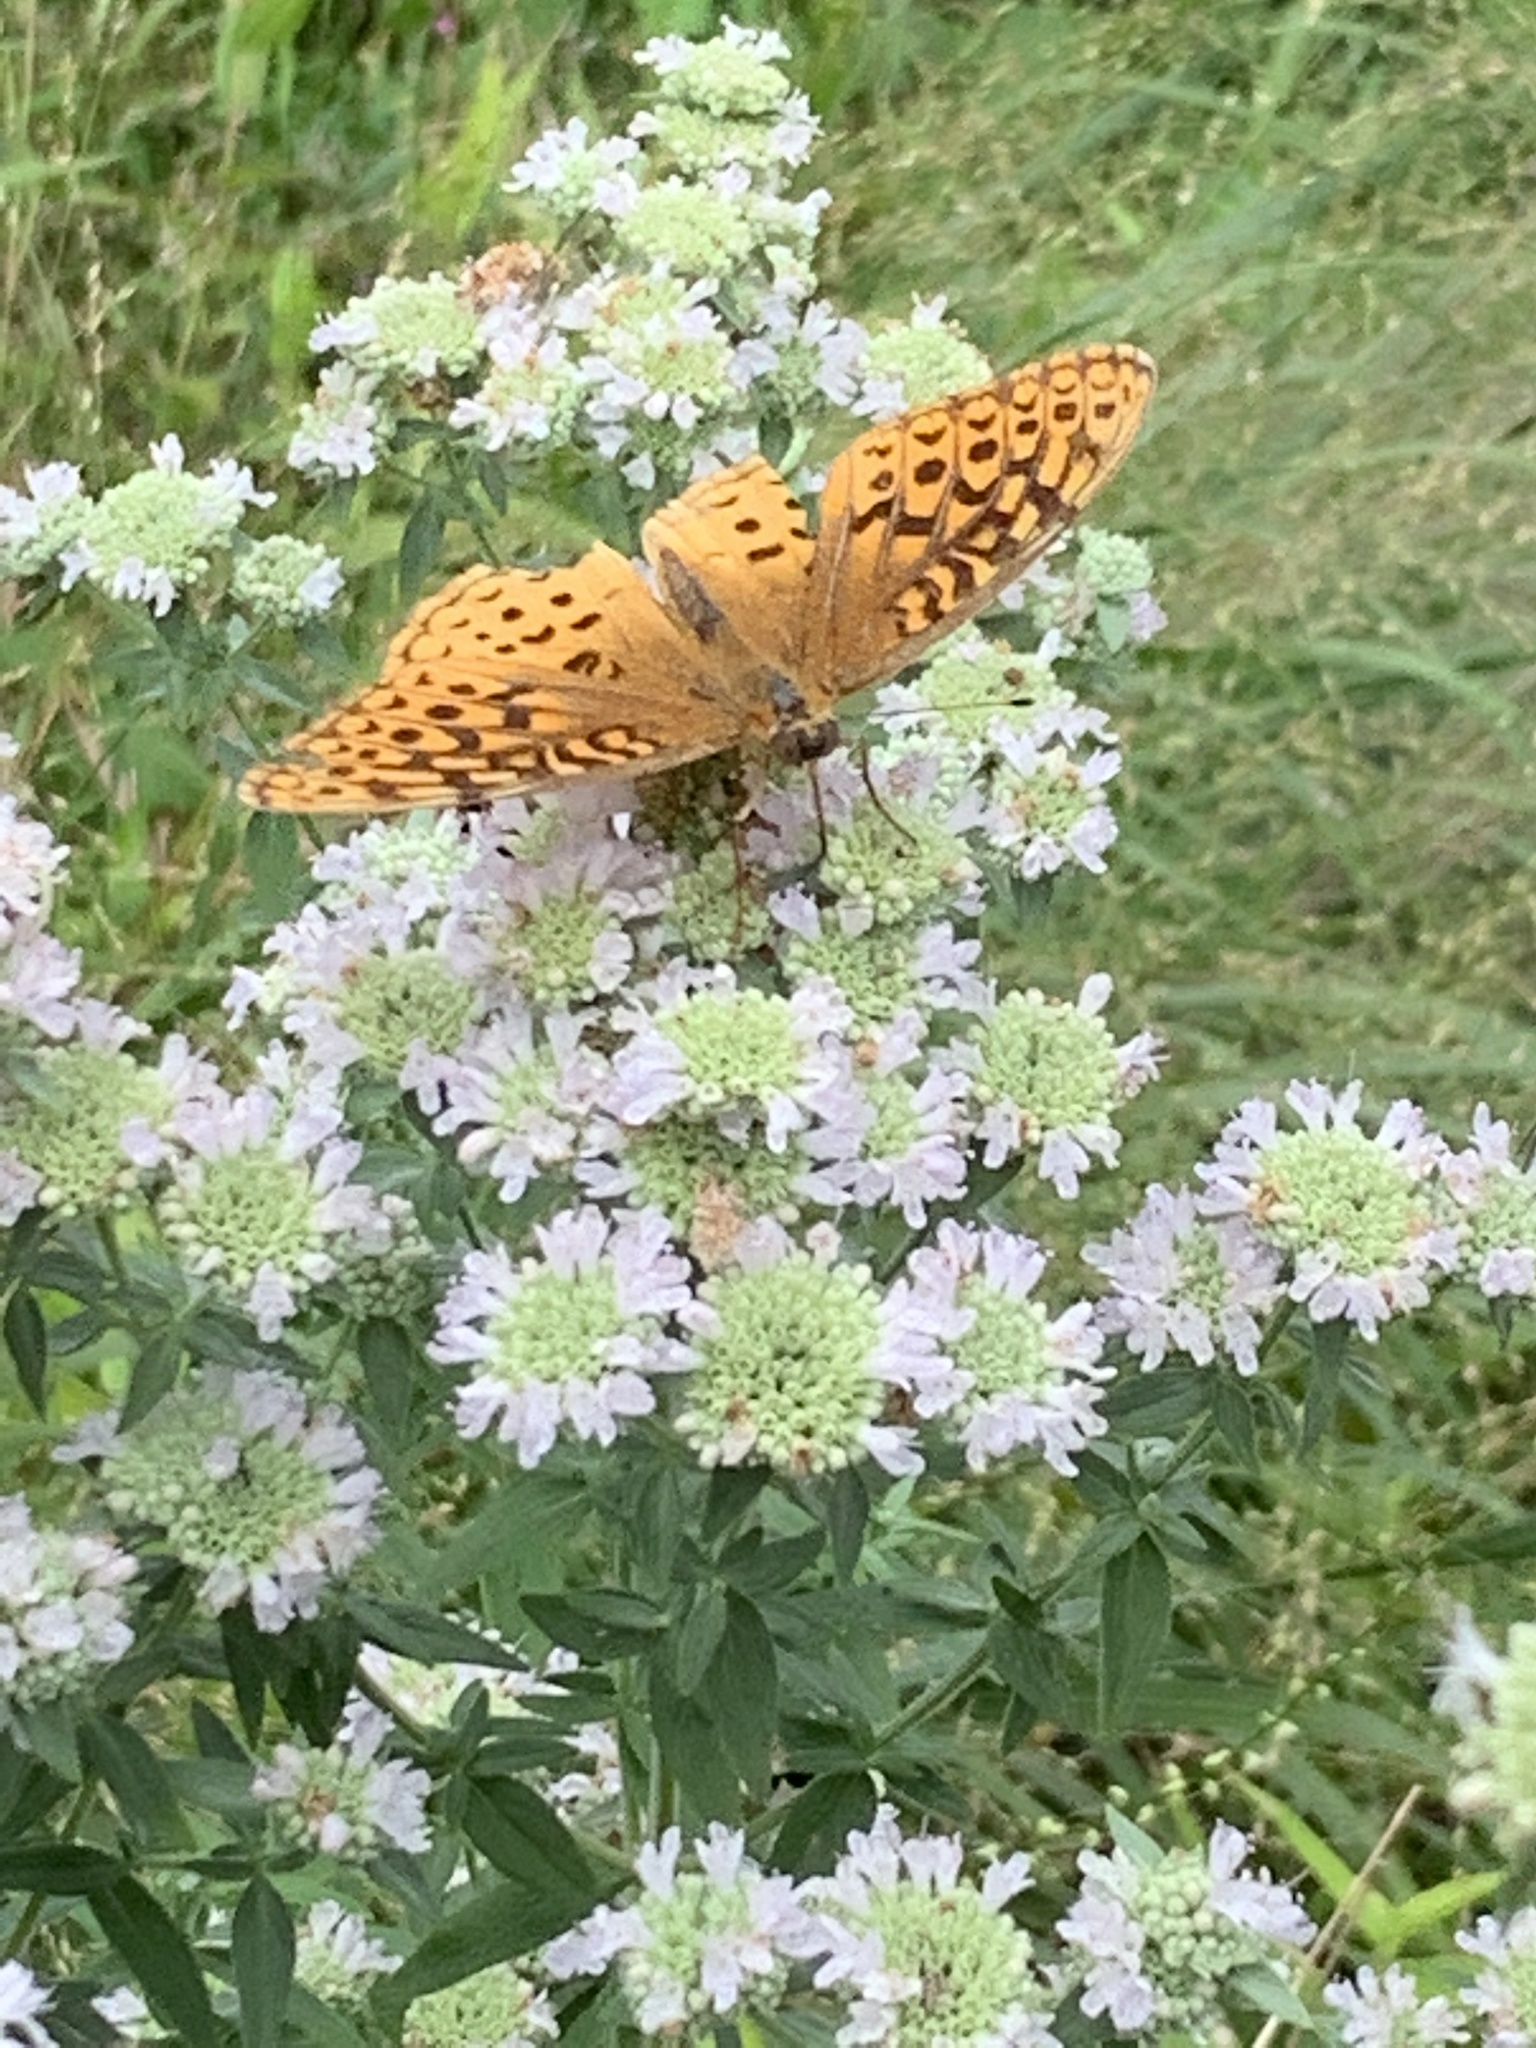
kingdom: Animalia
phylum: Arthropoda
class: Insecta
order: Lepidoptera
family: Nymphalidae
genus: Speyeria
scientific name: Speyeria cybele
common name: Great spangled fritillary
